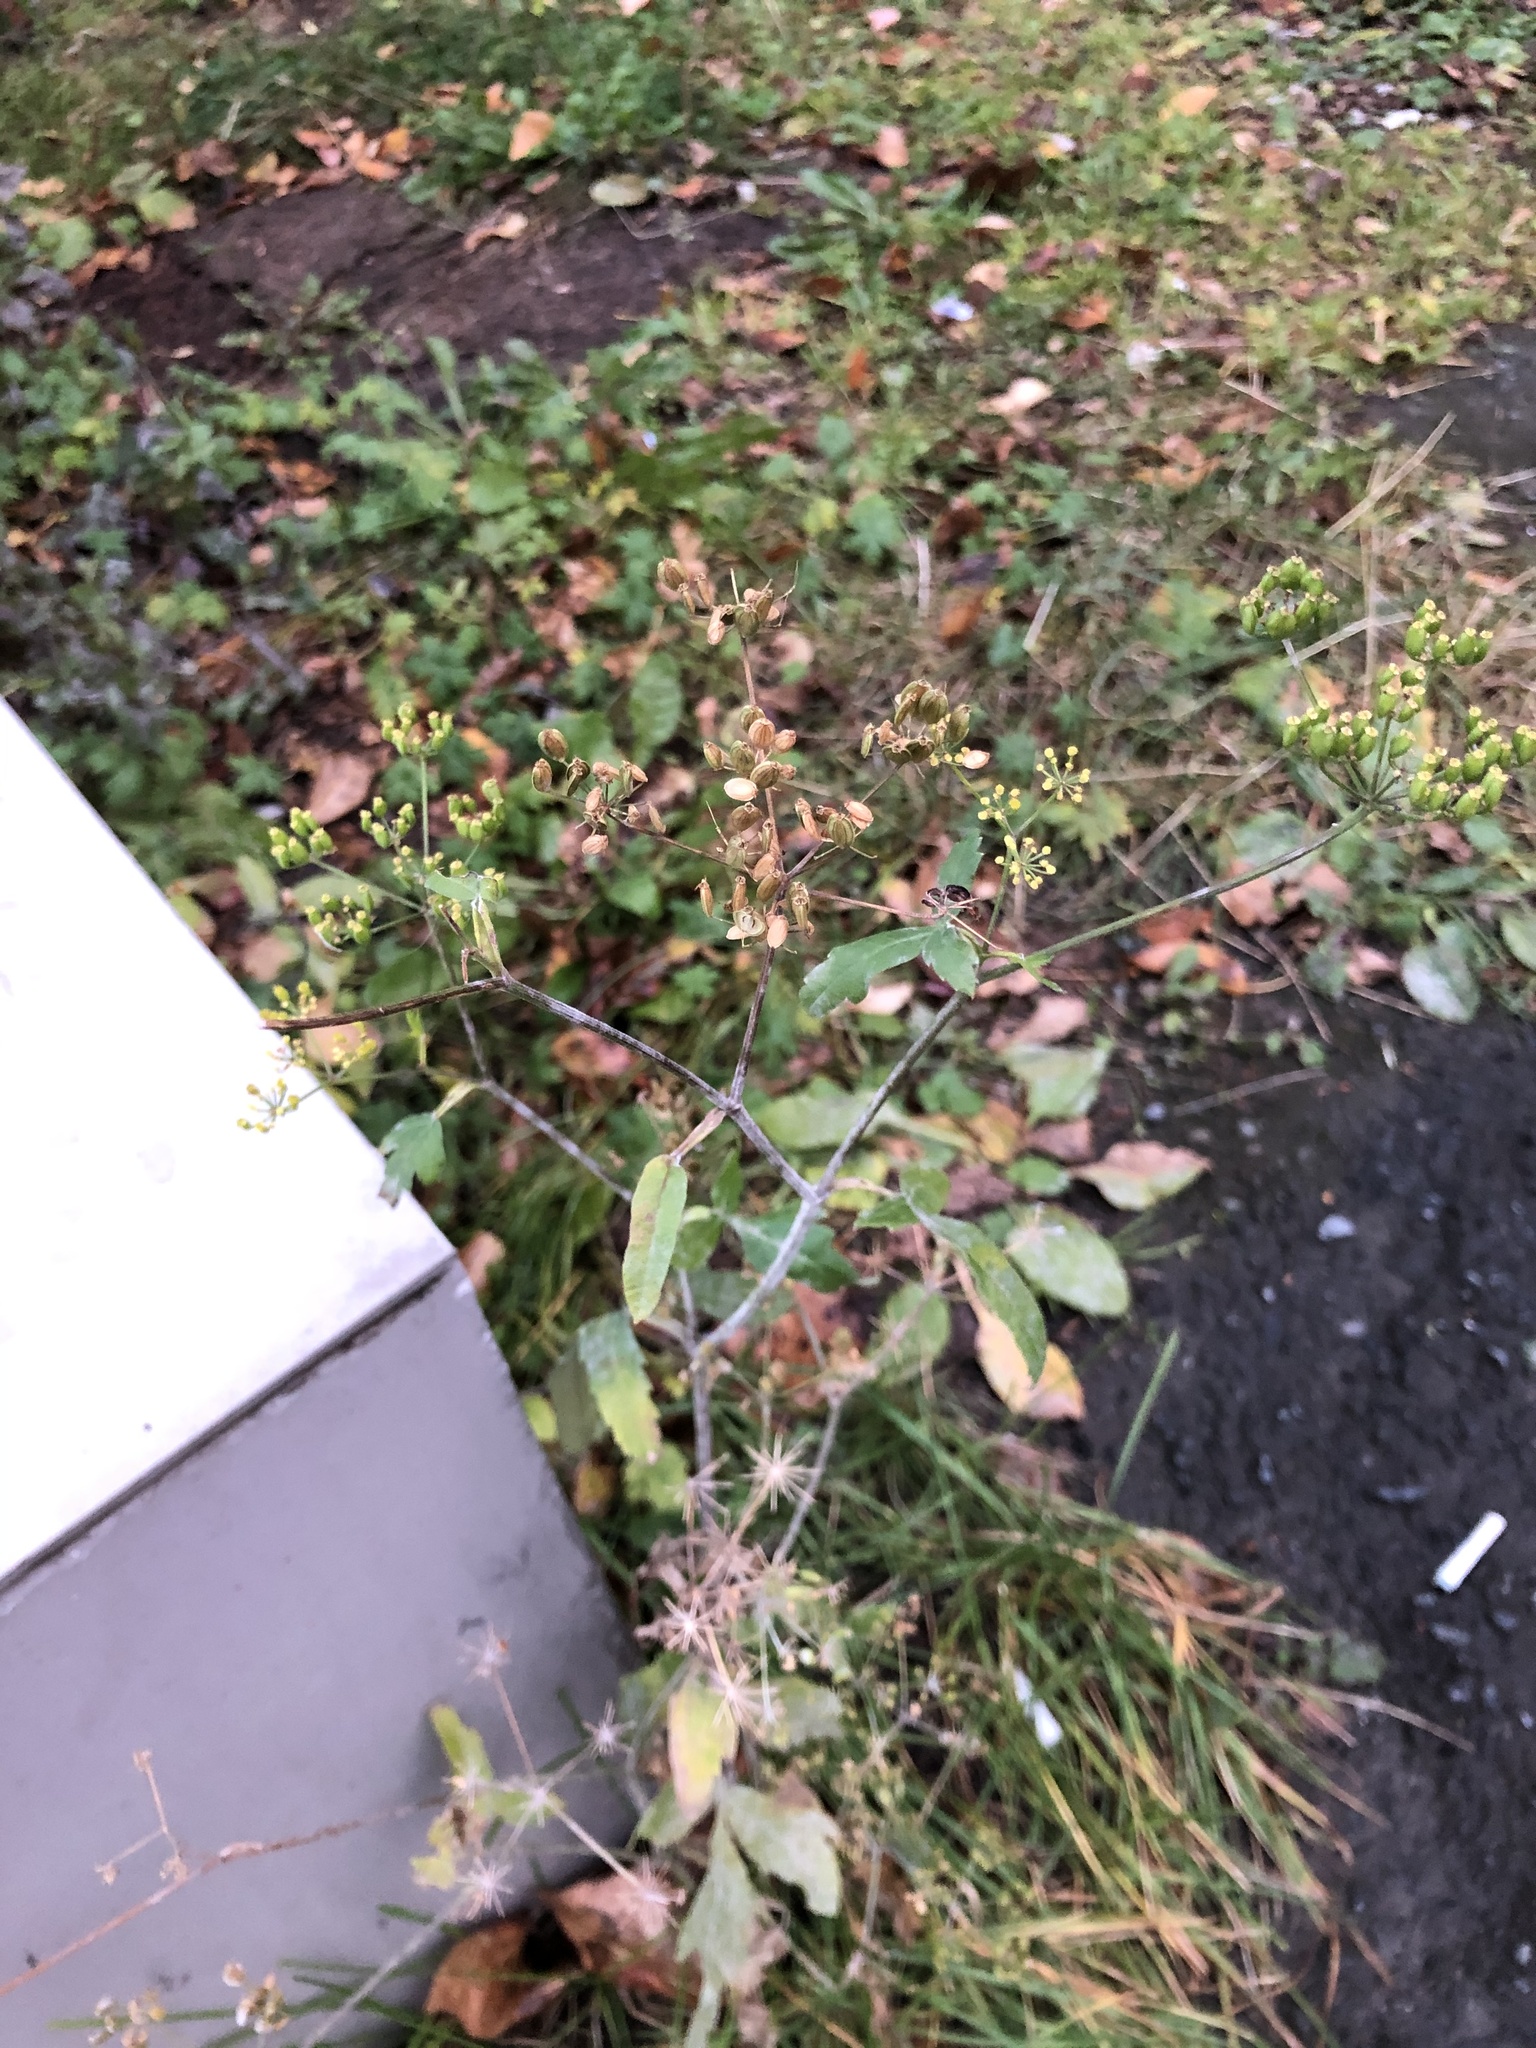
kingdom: Plantae
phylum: Tracheophyta
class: Magnoliopsida
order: Apiales
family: Apiaceae
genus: Pastinaca
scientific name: Pastinaca sativa
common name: Wild parsnip
